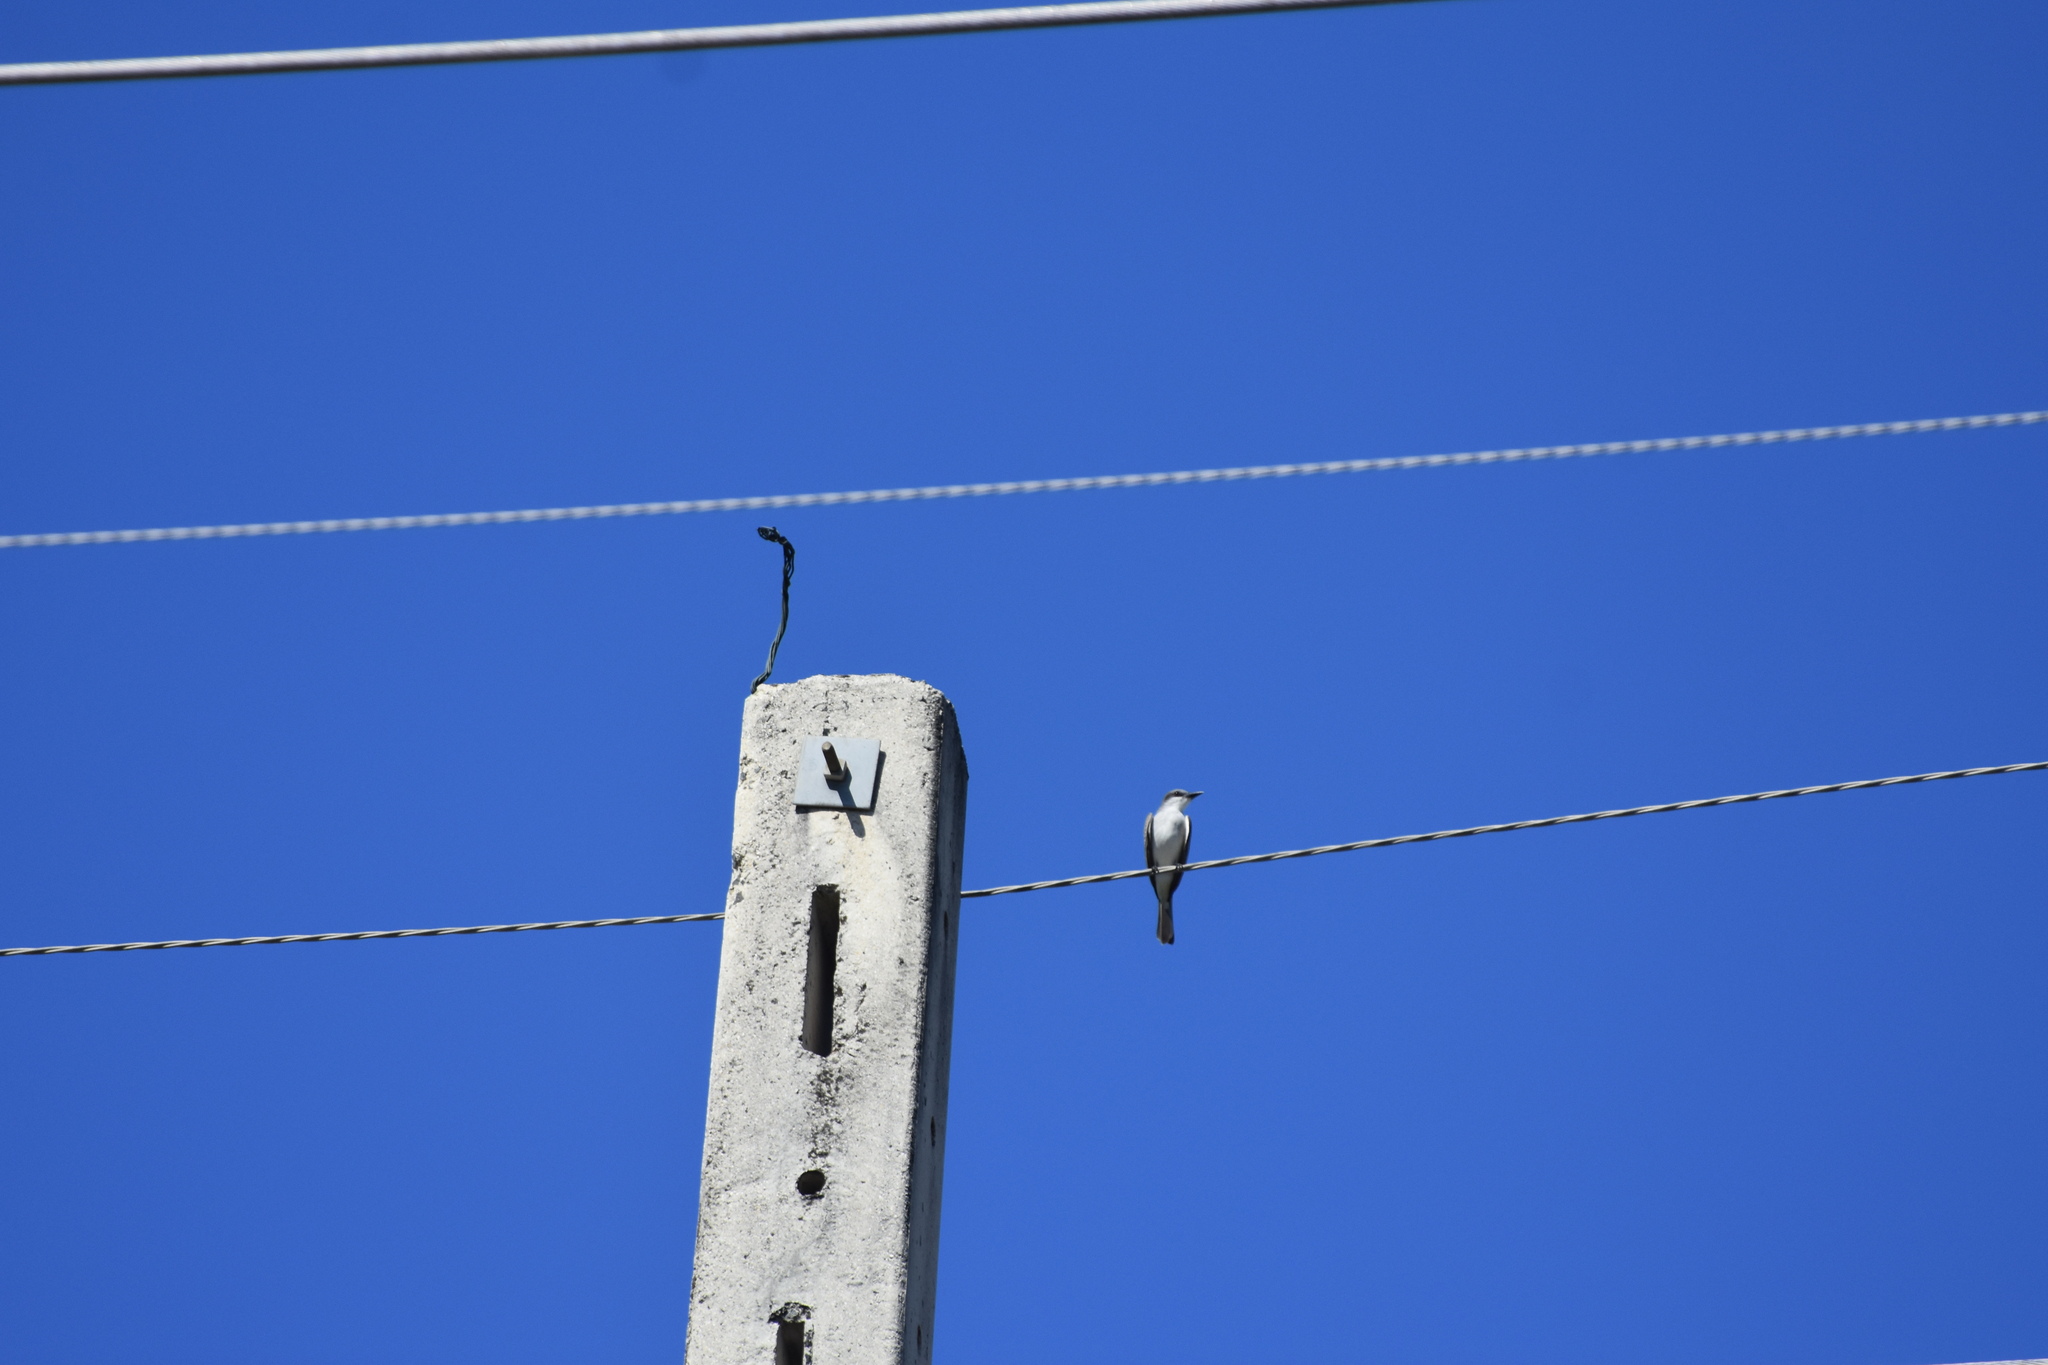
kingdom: Animalia
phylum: Chordata
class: Aves
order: Passeriformes
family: Tyrannidae
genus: Tyrannus
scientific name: Tyrannus dominicensis
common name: Gray kingbird
